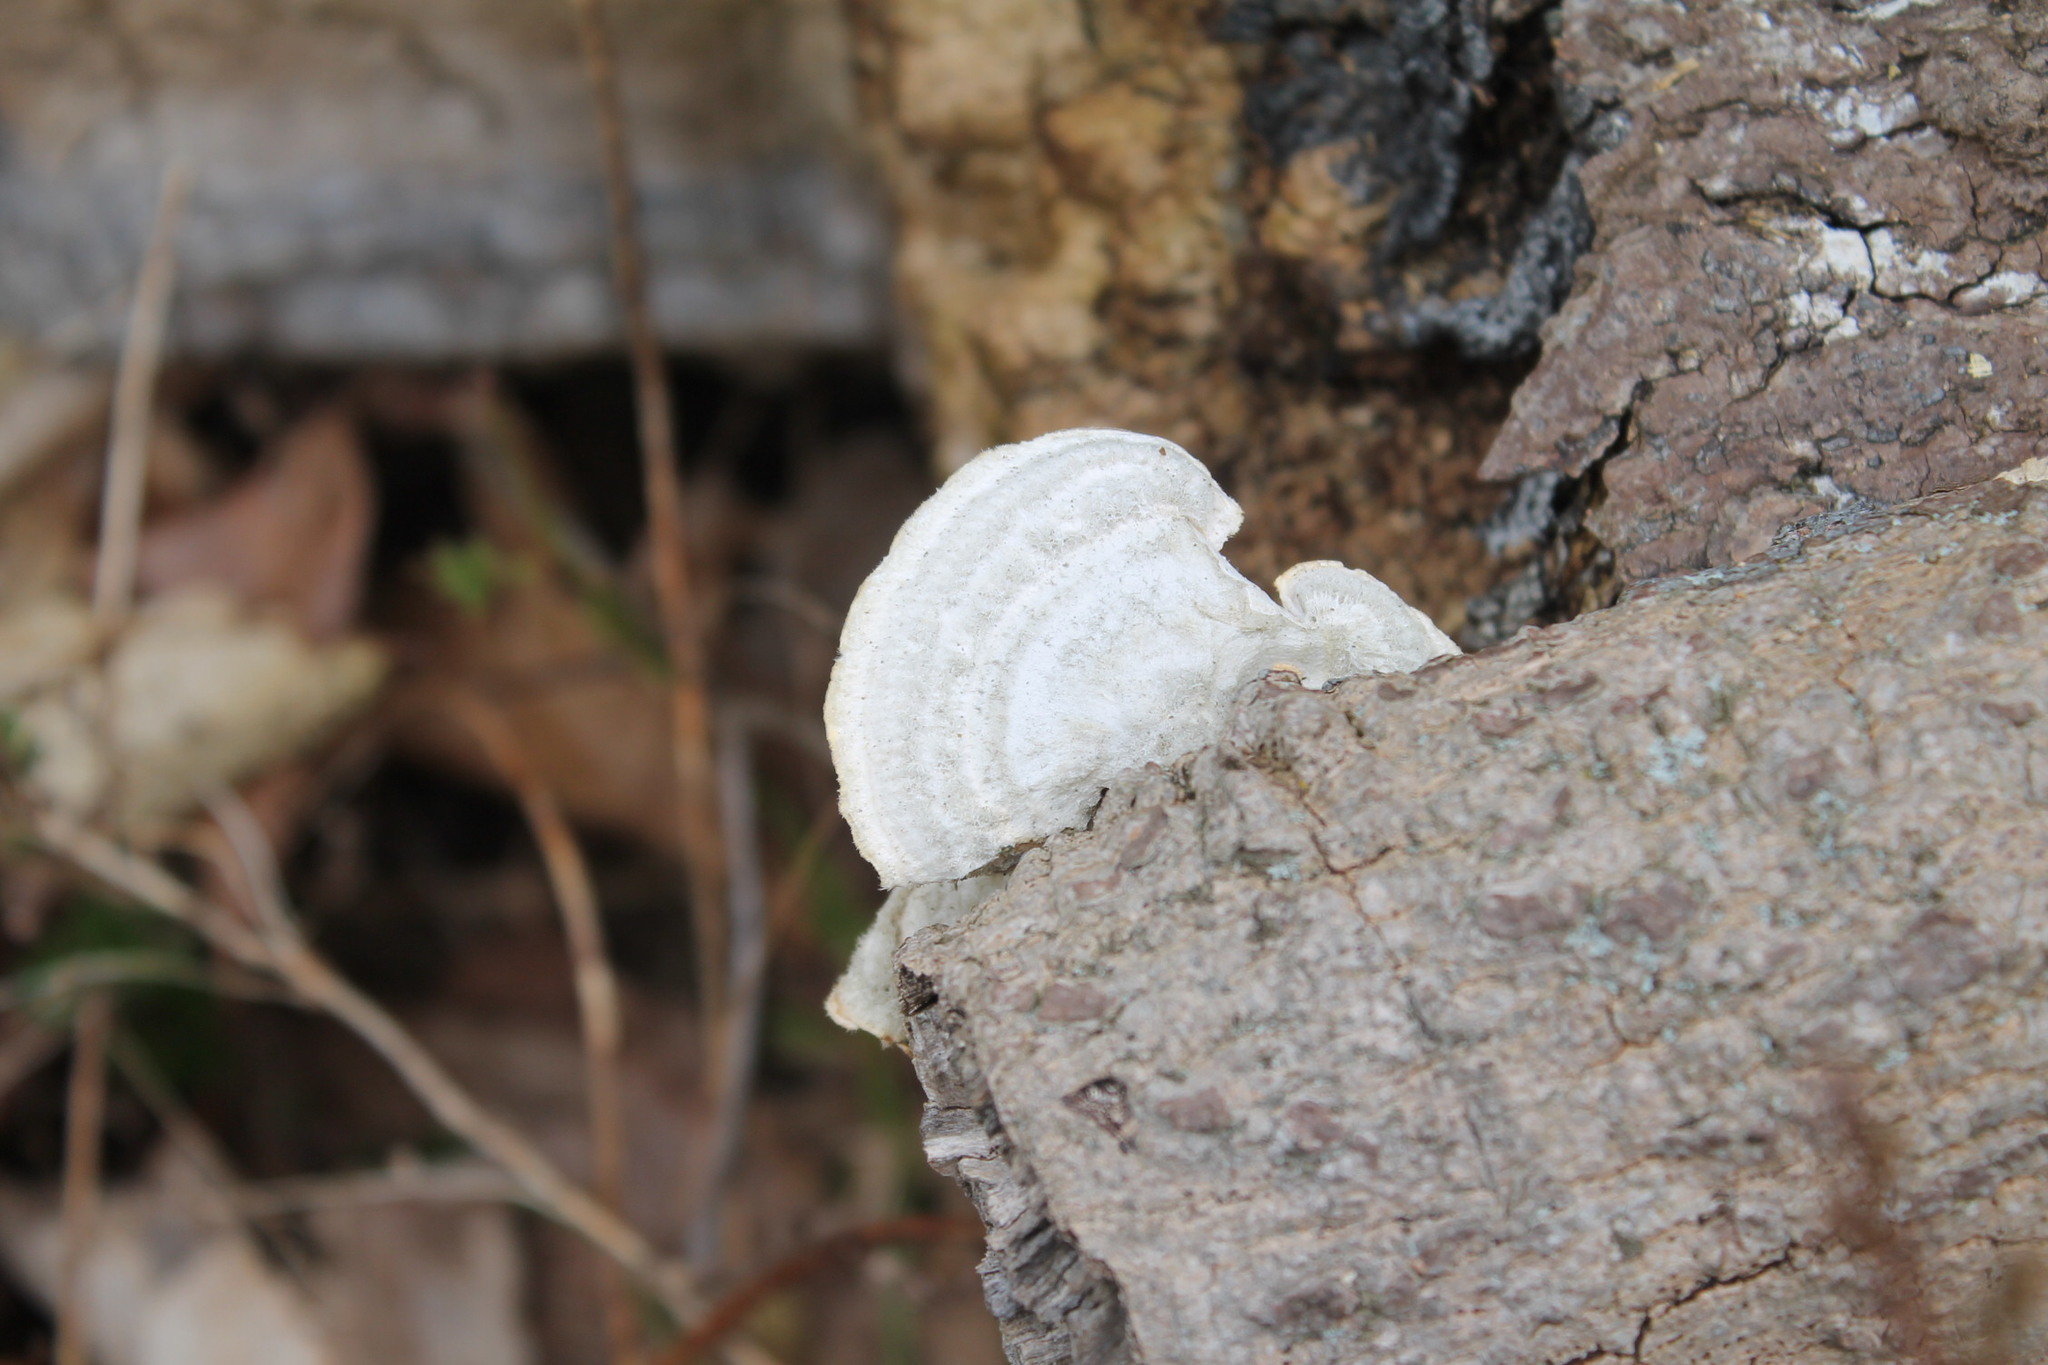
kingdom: Fungi
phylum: Basidiomycota
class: Agaricomycetes
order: Polyporales
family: Polyporaceae
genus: Trametes
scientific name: Trametes hirsuta
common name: Hairy bracket
